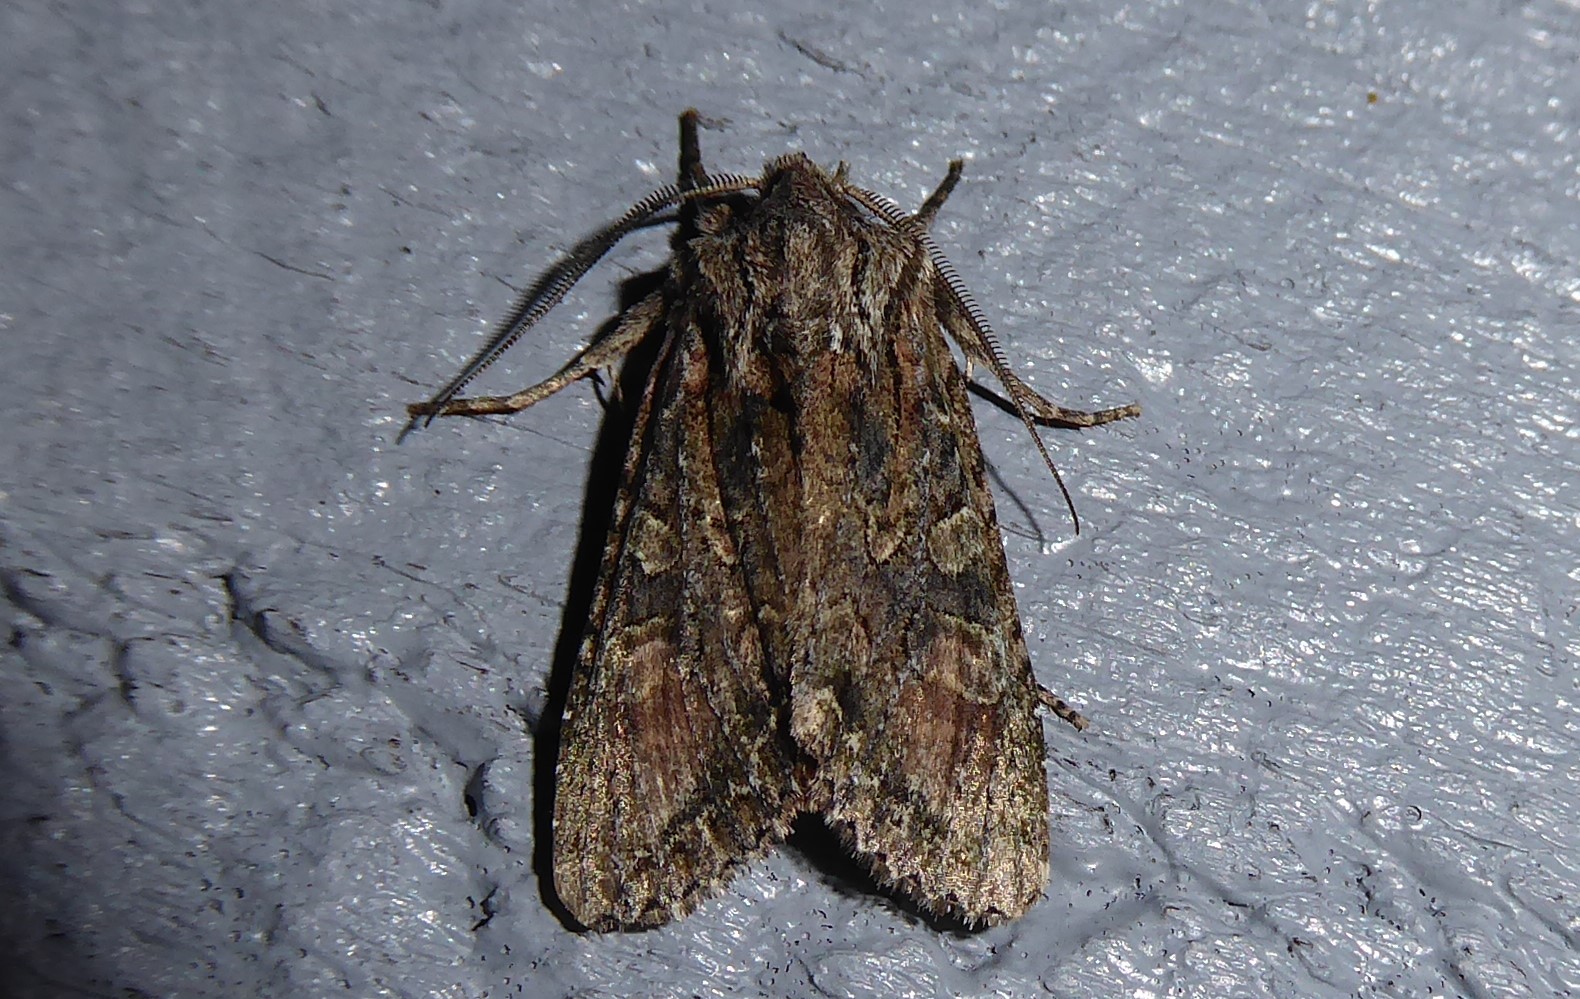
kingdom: Animalia
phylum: Arthropoda
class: Insecta
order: Lepidoptera
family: Noctuidae
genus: Ichneutica
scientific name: Ichneutica mutans
